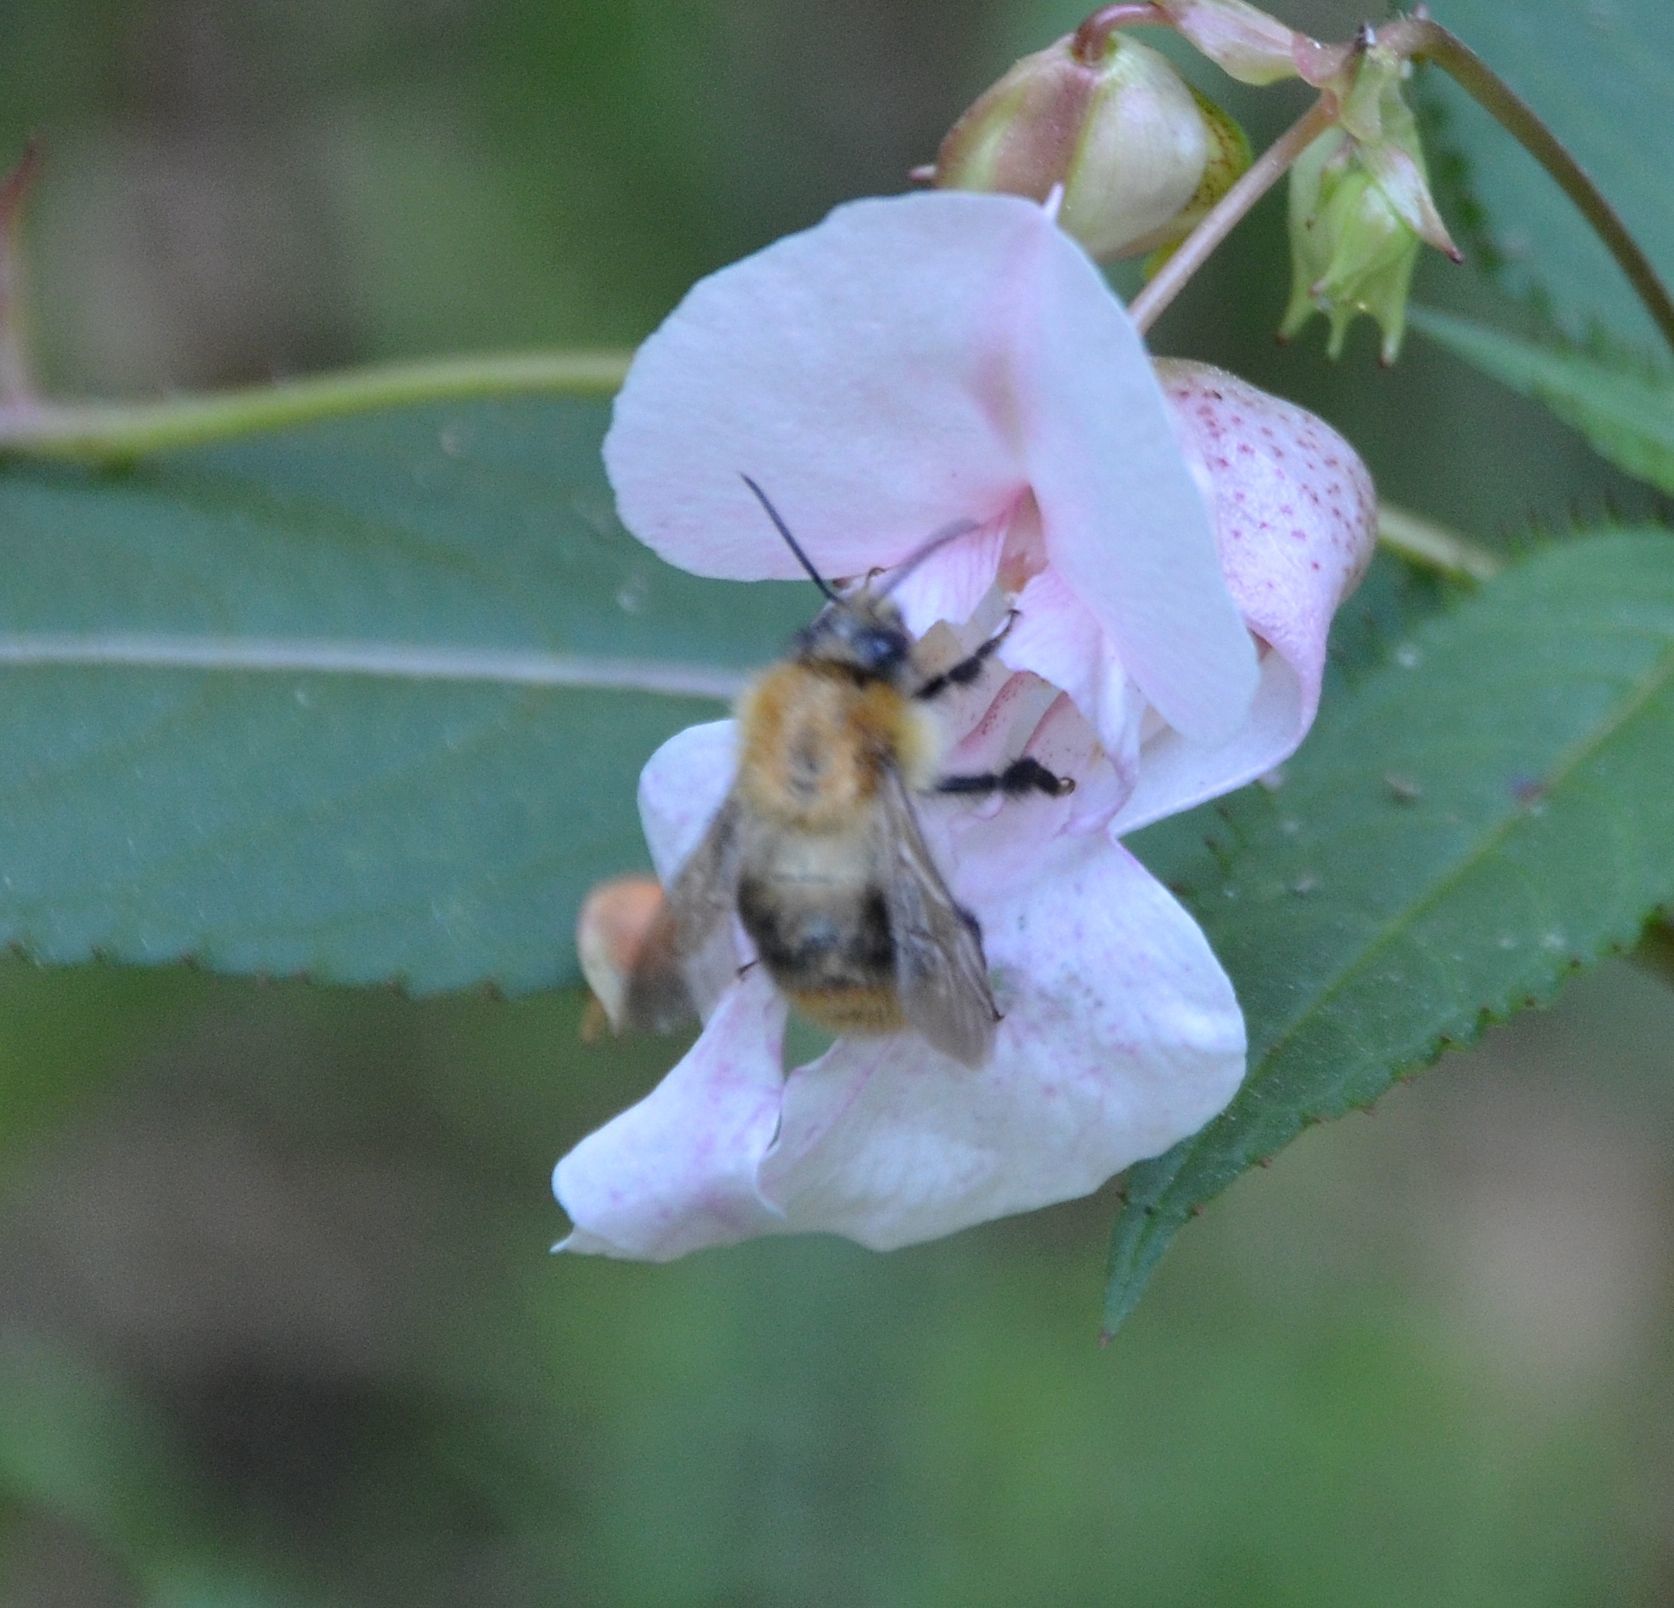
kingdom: Animalia
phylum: Arthropoda
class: Insecta
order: Hymenoptera
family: Apidae
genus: Bombus
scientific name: Bombus pascuorum
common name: Common carder bee
